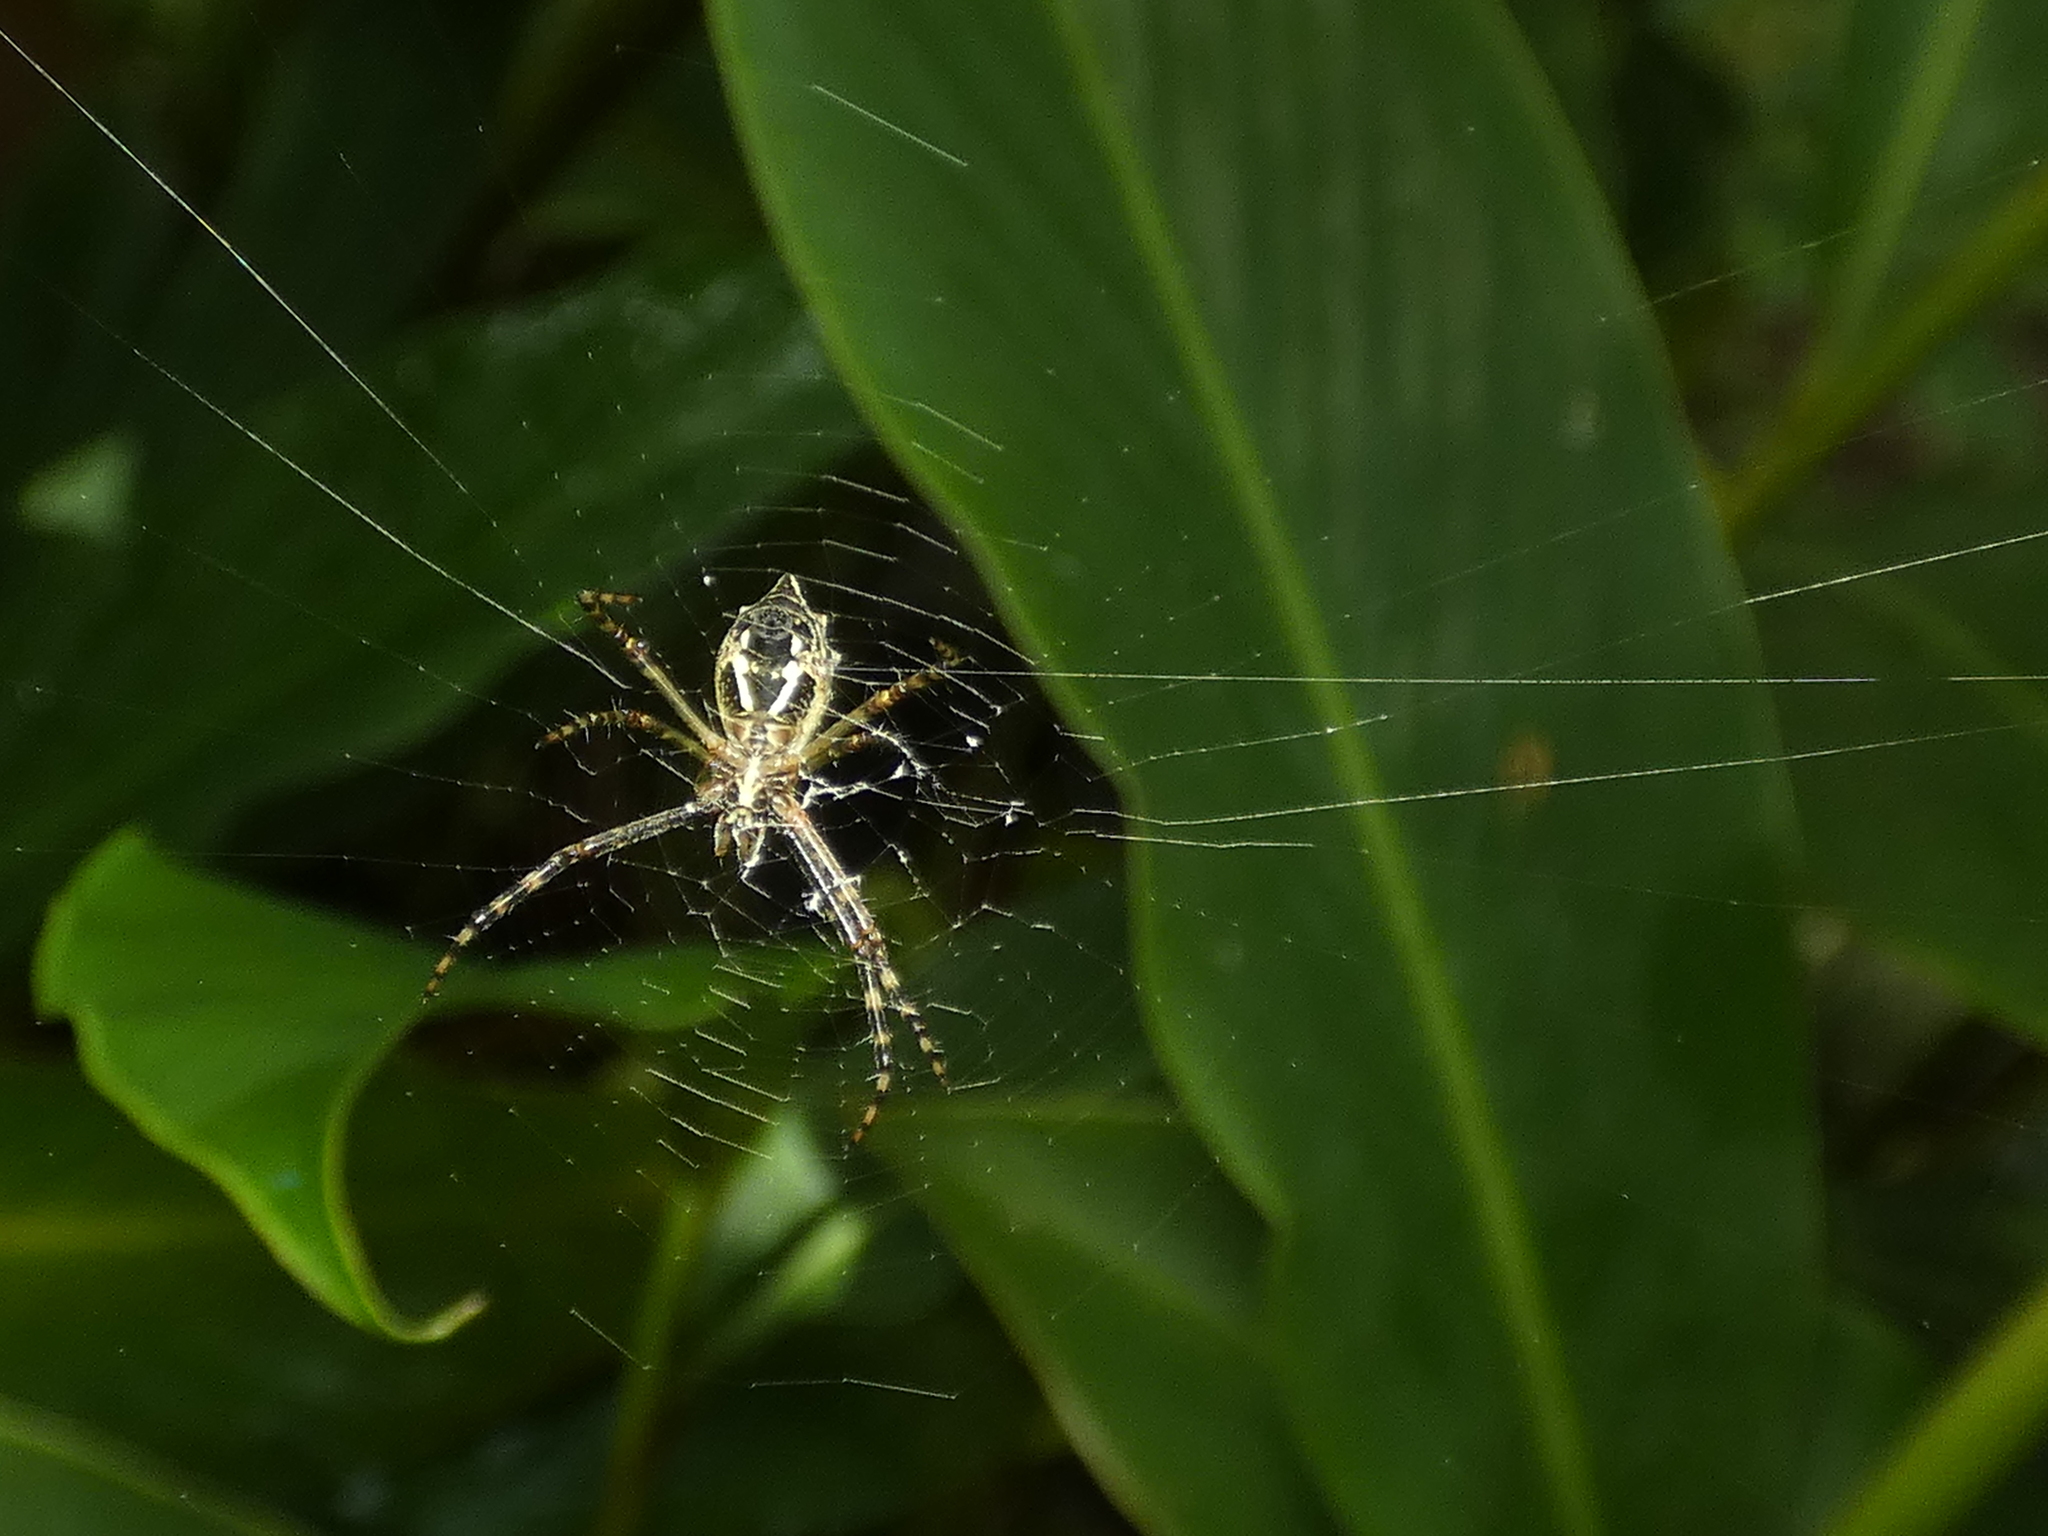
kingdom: Animalia
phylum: Arthropoda
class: Arachnida
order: Araneae
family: Araneidae
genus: Argiope
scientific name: Argiope argentata
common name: Orb weavers
